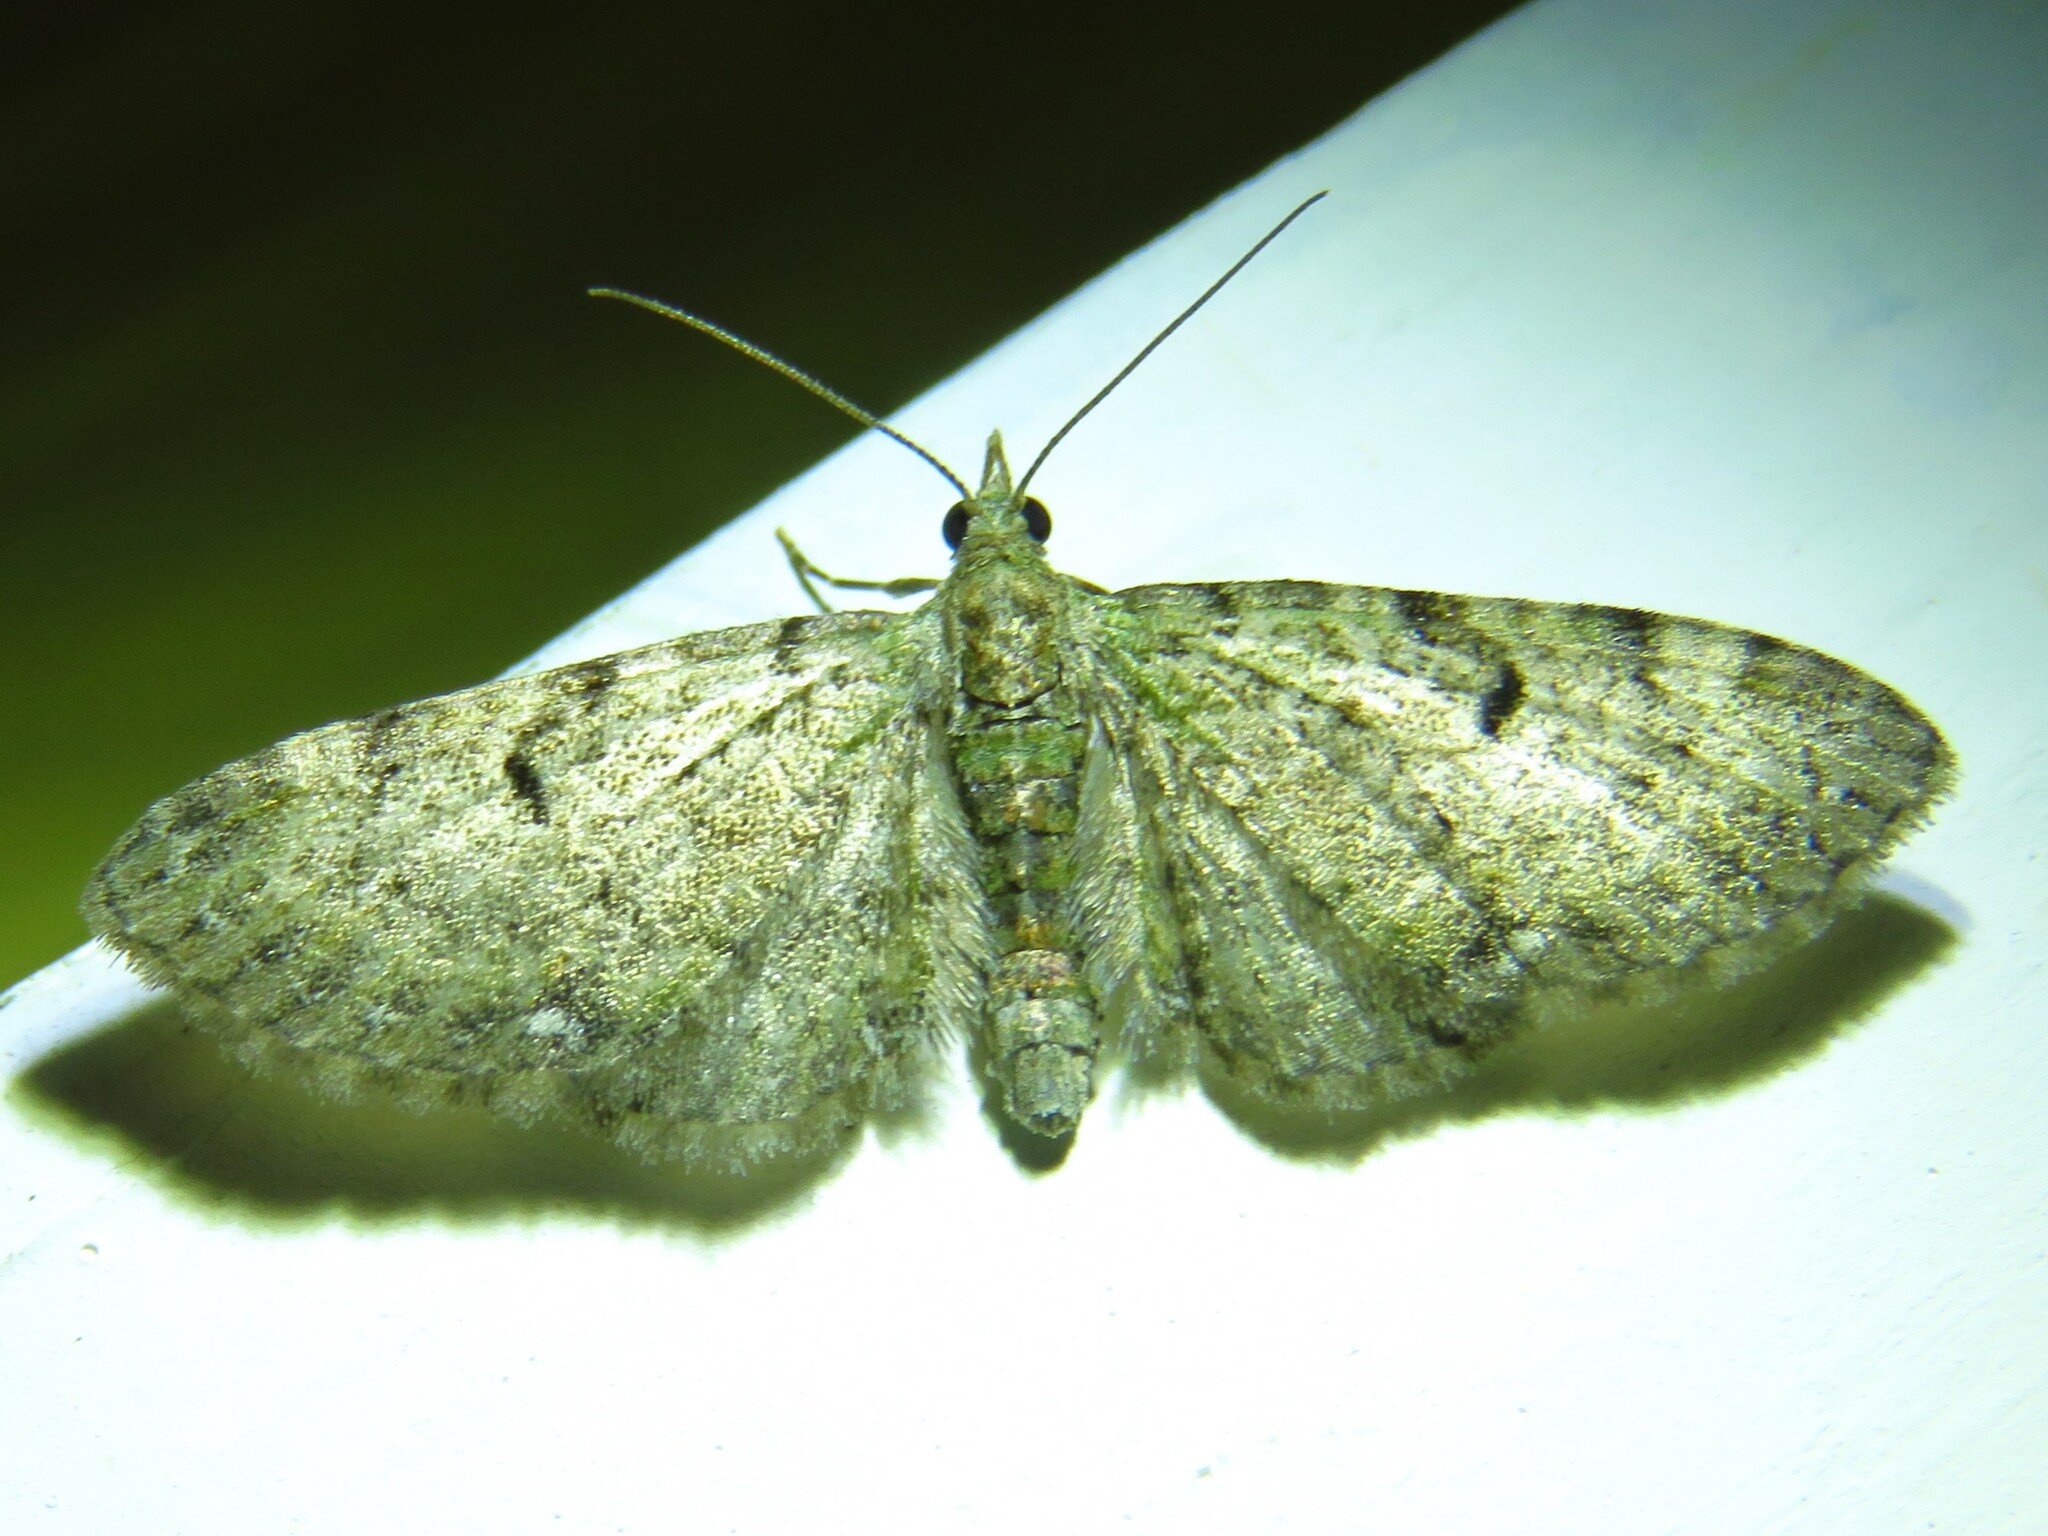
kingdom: Animalia
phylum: Arthropoda
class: Insecta
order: Lepidoptera
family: Geometridae
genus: Eupithecia
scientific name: Eupithecia miserulata
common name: Common eupithecia
